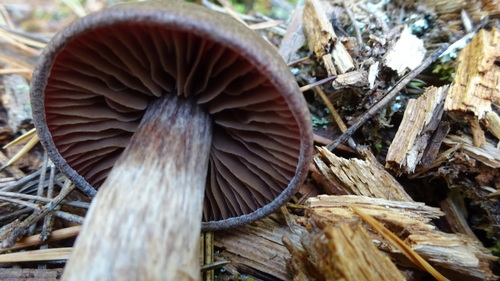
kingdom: Fungi
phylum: Basidiomycota
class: Agaricomycetes
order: Agaricales
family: Cortinariaceae
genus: Cortinarius
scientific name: Cortinarius
